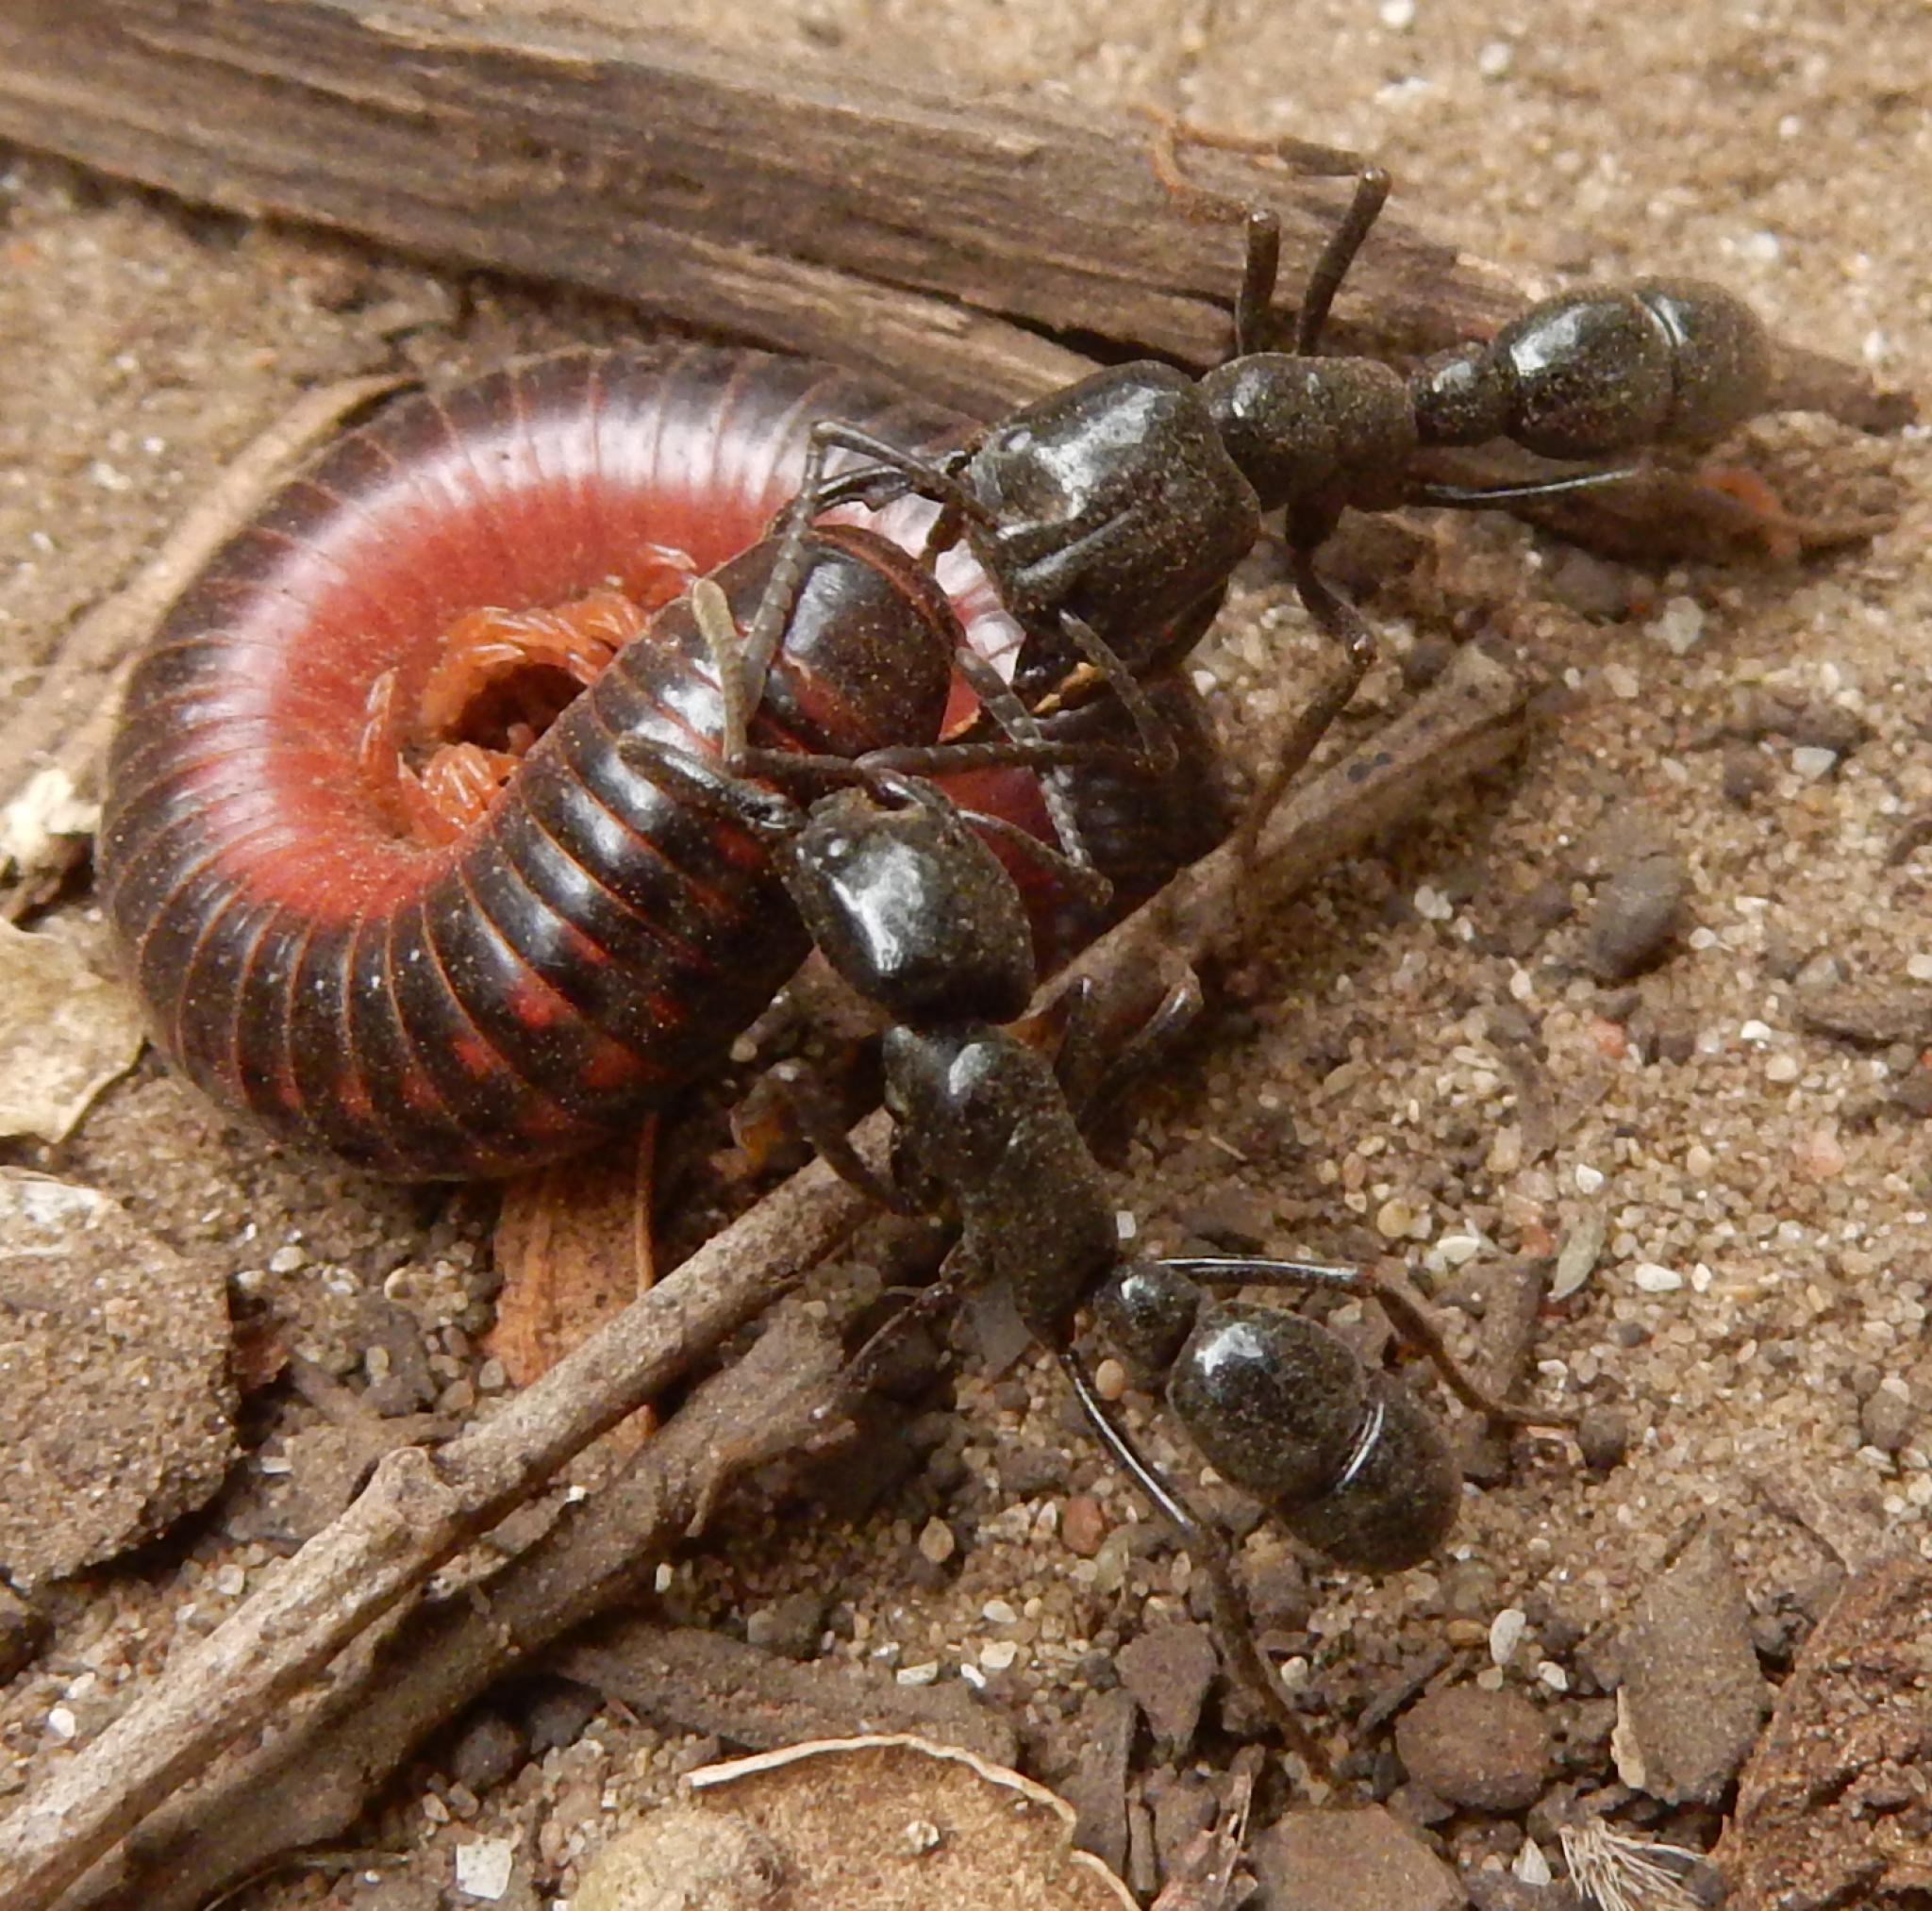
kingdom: Animalia
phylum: Arthropoda
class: Insecta
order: Hymenoptera
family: Formicidae
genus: Plectroctena
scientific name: Plectroctena mandibularis
